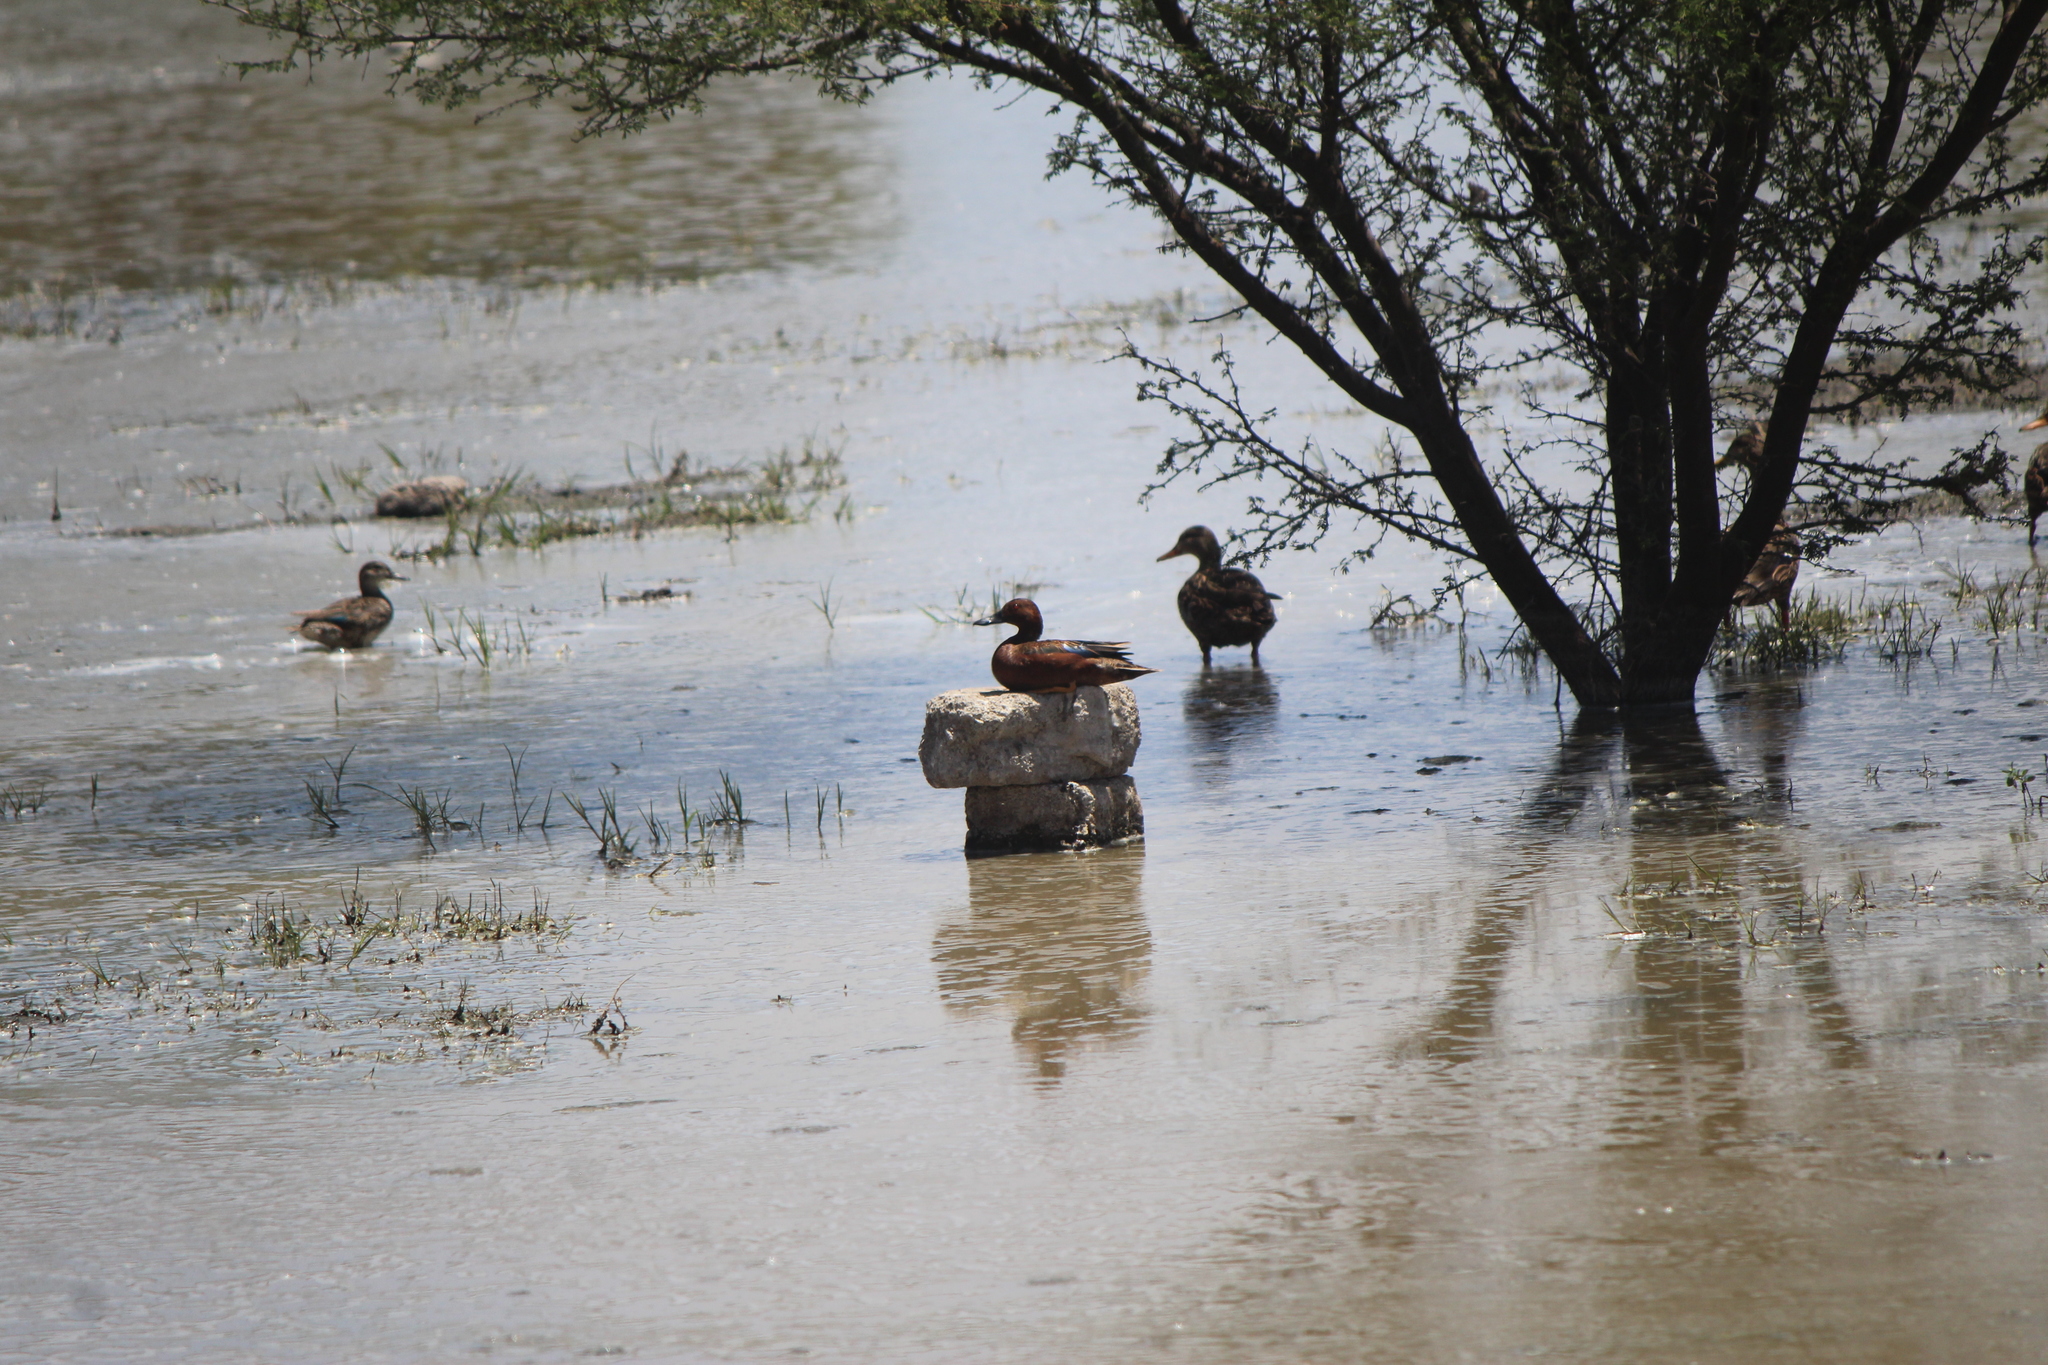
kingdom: Animalia
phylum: Chordata
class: Aves
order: Anseriformes
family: Anatidae
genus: Spatula
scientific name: Spatula cyanoptera
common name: Cinnamon teal
